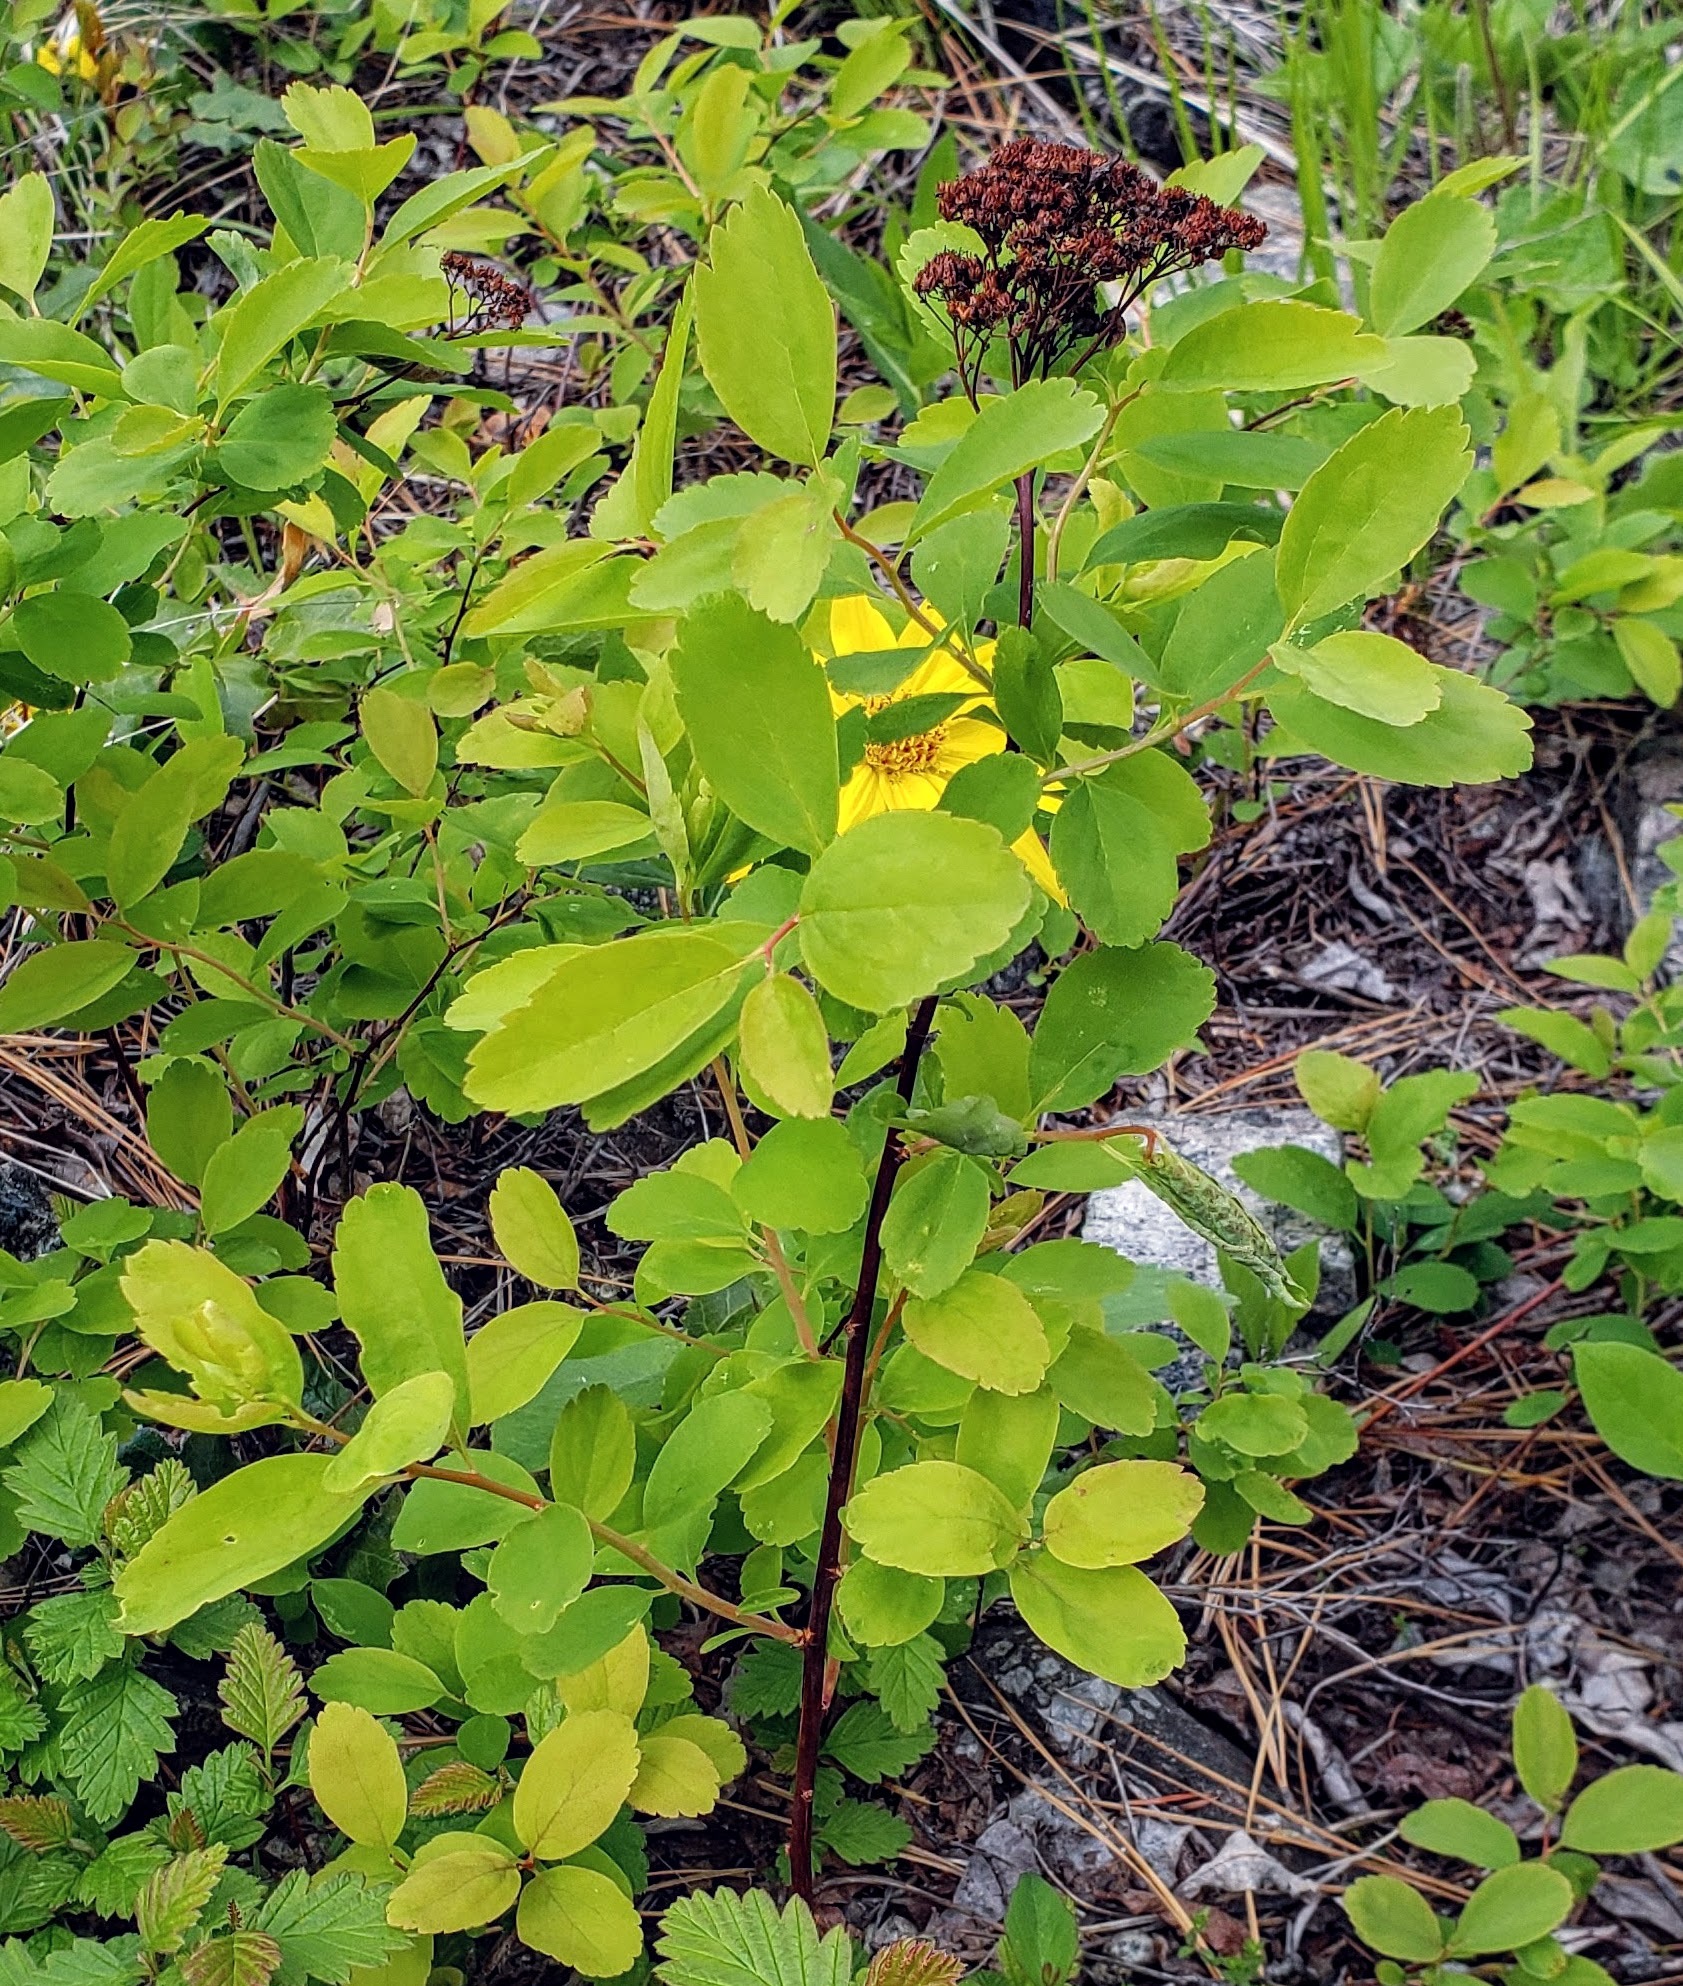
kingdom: Plantae
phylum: Tracheophyta
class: Magnoliopsida
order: Rosales
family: Rosaceae
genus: Spiraea
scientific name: Spiraea lucida
